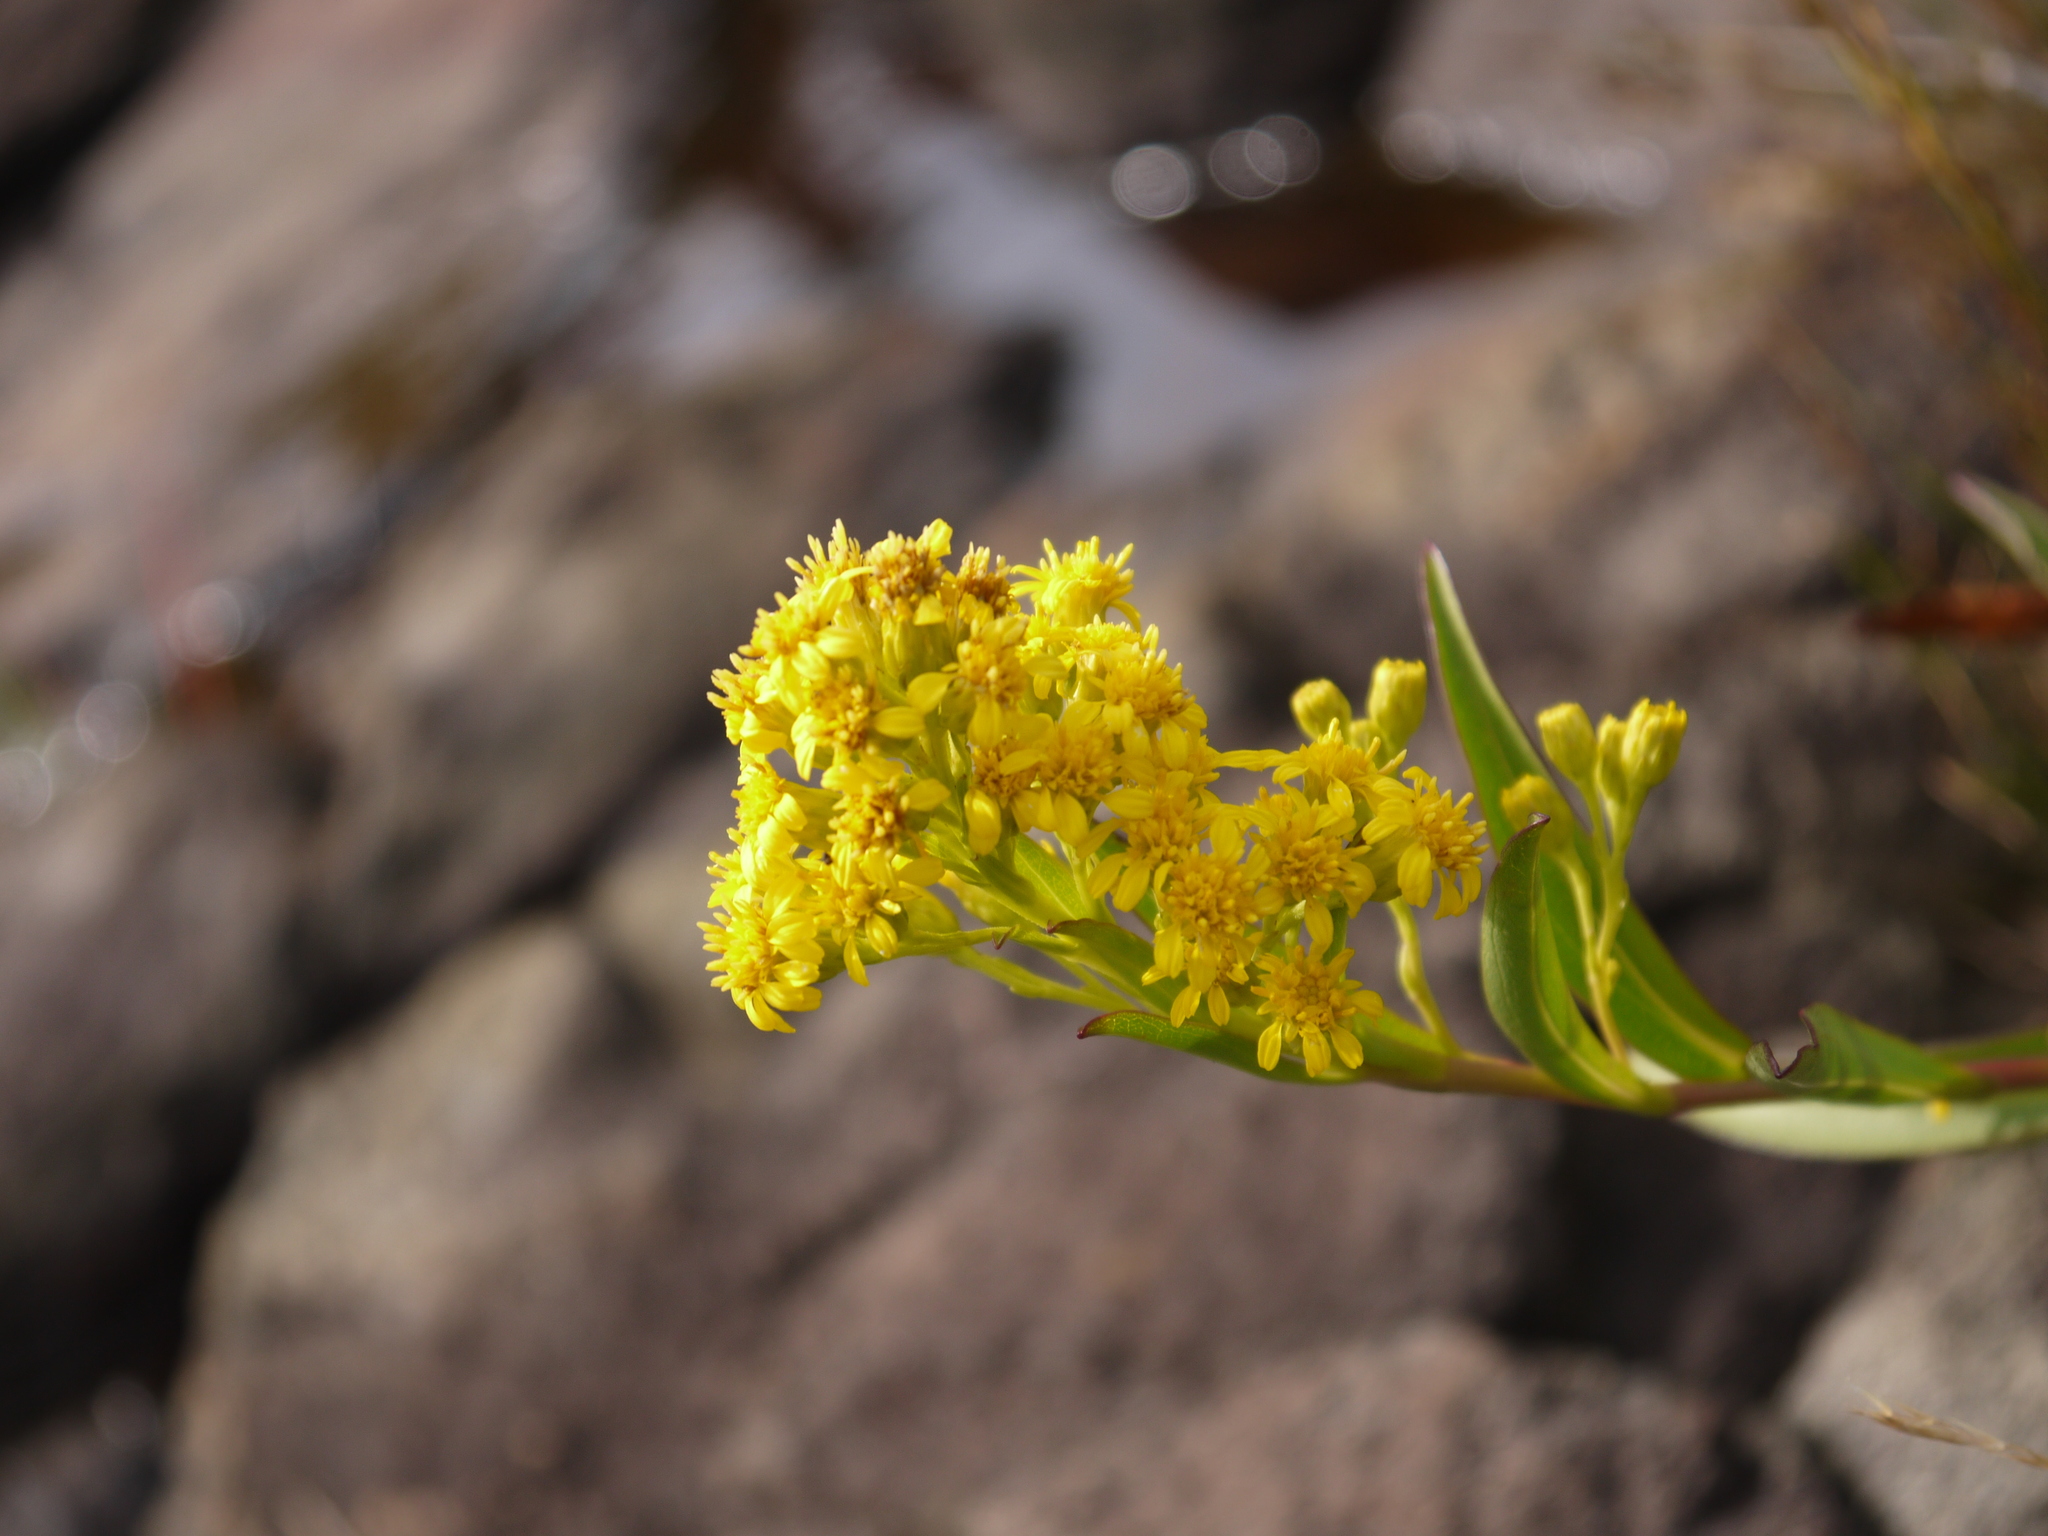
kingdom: Plantae
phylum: Tracheophyta
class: Magnoliopsida
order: Asterales
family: Asteraceae
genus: Solidago
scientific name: Solidago sempervirens
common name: Salt-marsh goldenrod
